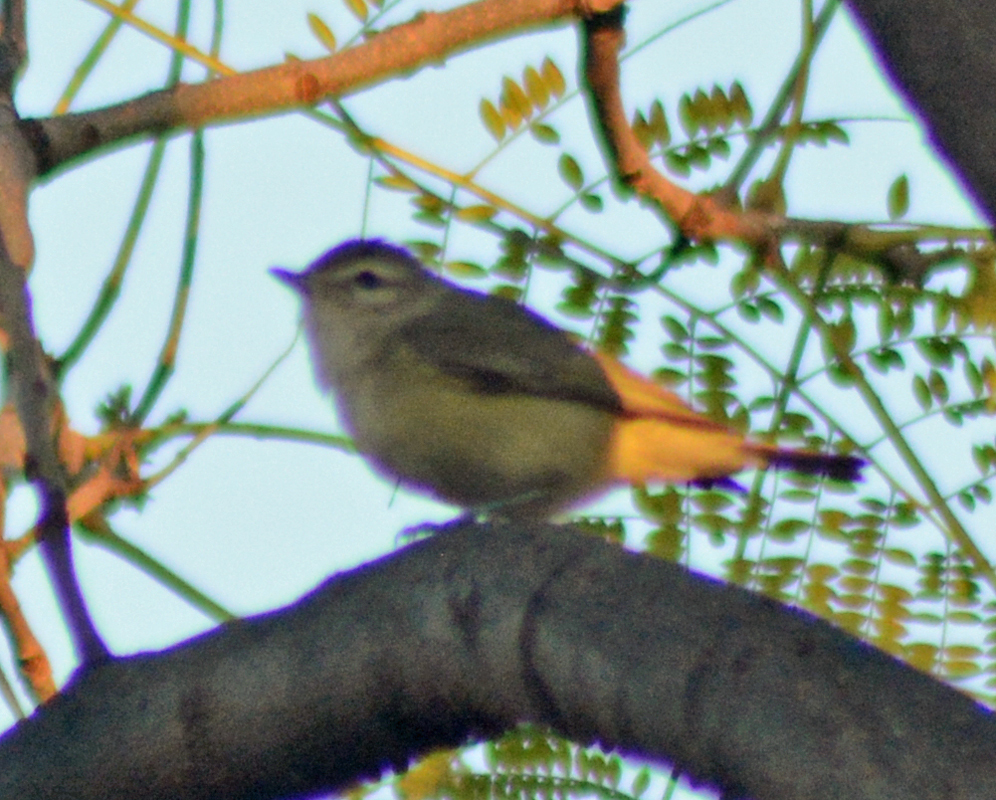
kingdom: Animalia
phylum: Chordata
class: Aves
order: Passeriformes
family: Vireonidae
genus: Vireo
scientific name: Vireo gilvus
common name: Warbling vireo
